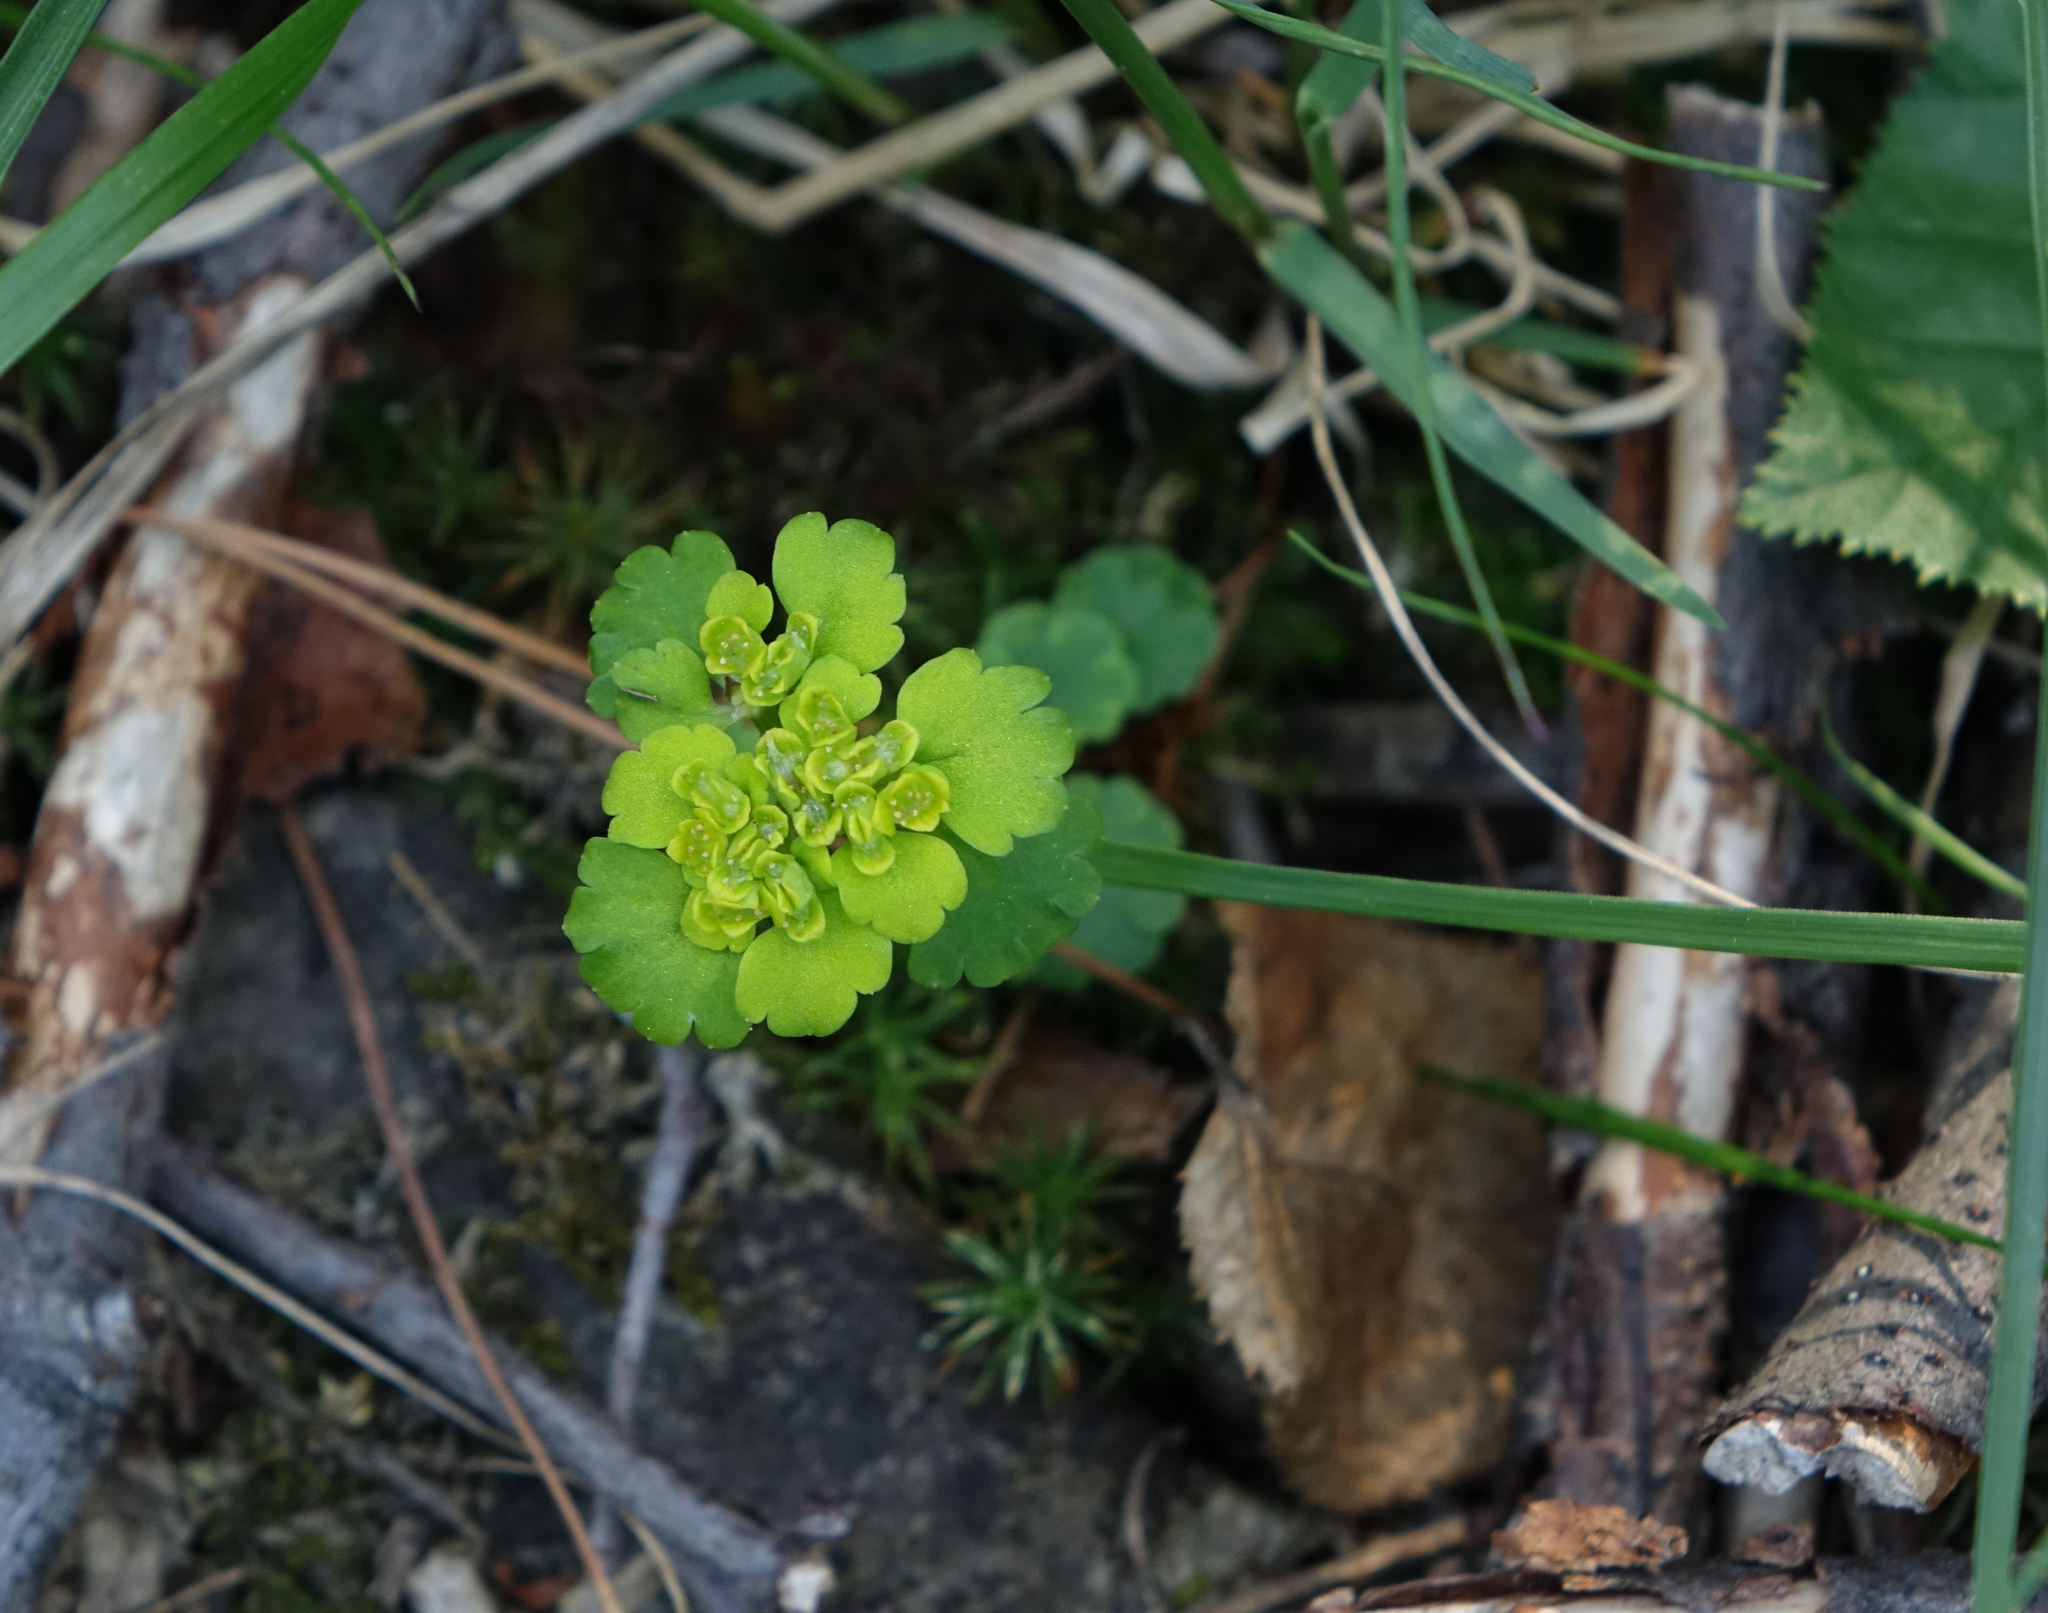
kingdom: Plantae
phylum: Tracheophyta
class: Magnoliopsida
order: Saxifragales
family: Saxifragaceae
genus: Chrysosplenium
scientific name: Chrysosplenium sibiricum
